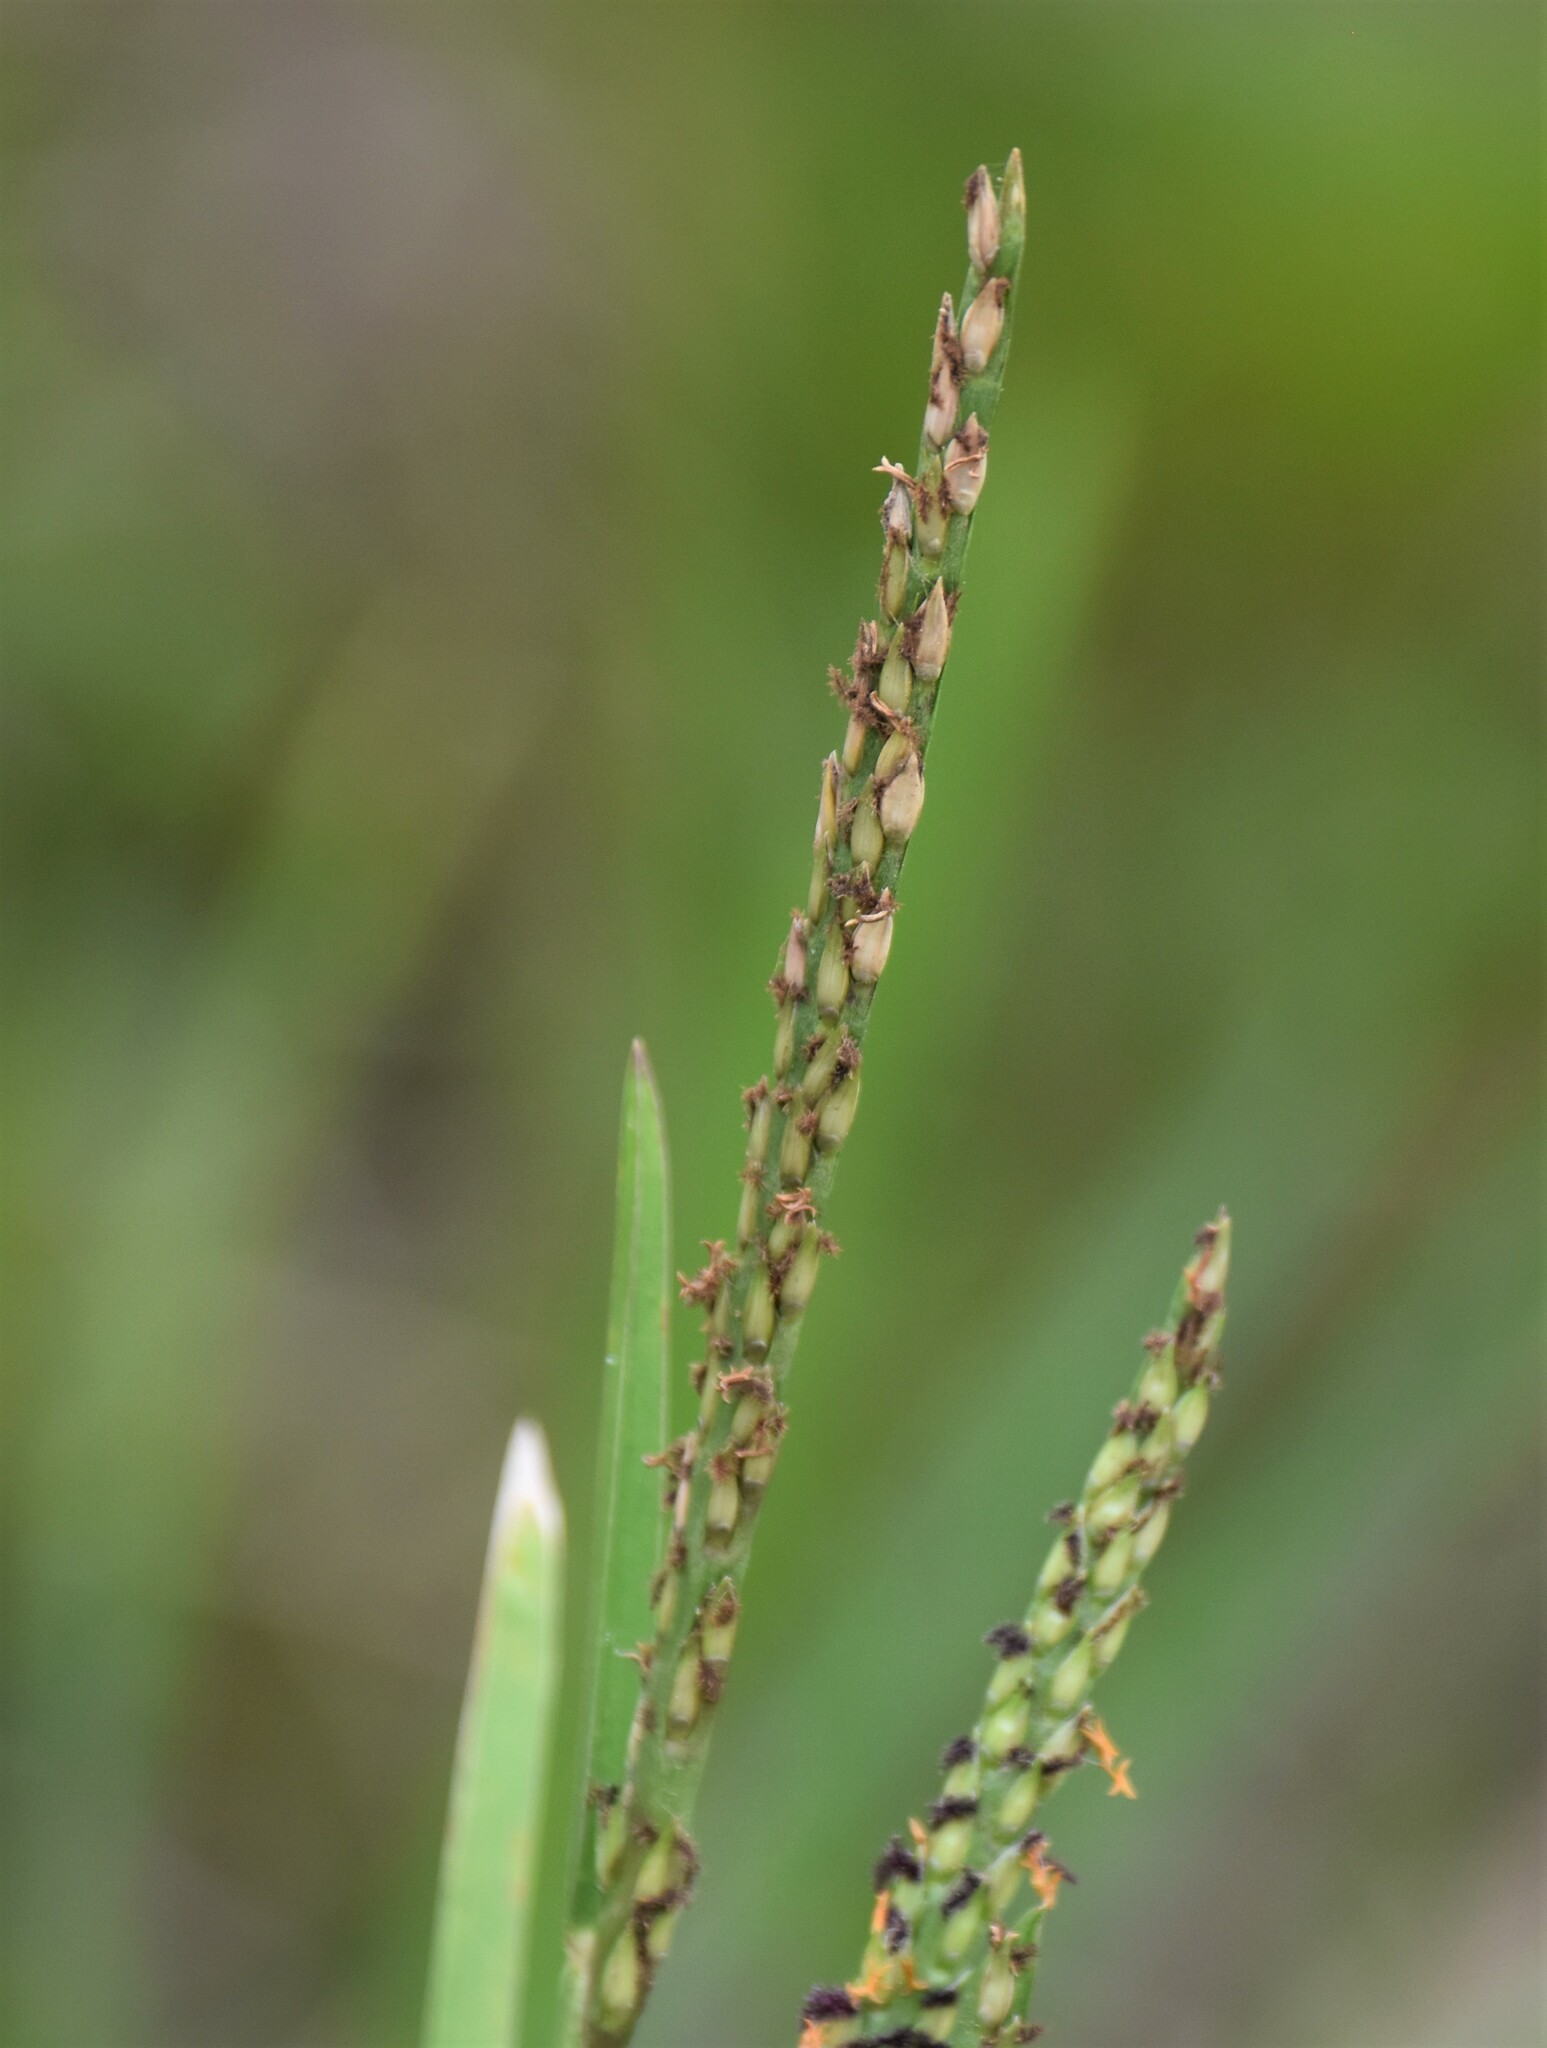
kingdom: Plantae
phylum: Tracheophyta
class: Liliopsida
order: Poales
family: Poaceae
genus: Stenotaphrum
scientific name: Stenotaphrum secundatum
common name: St. augustine grass
